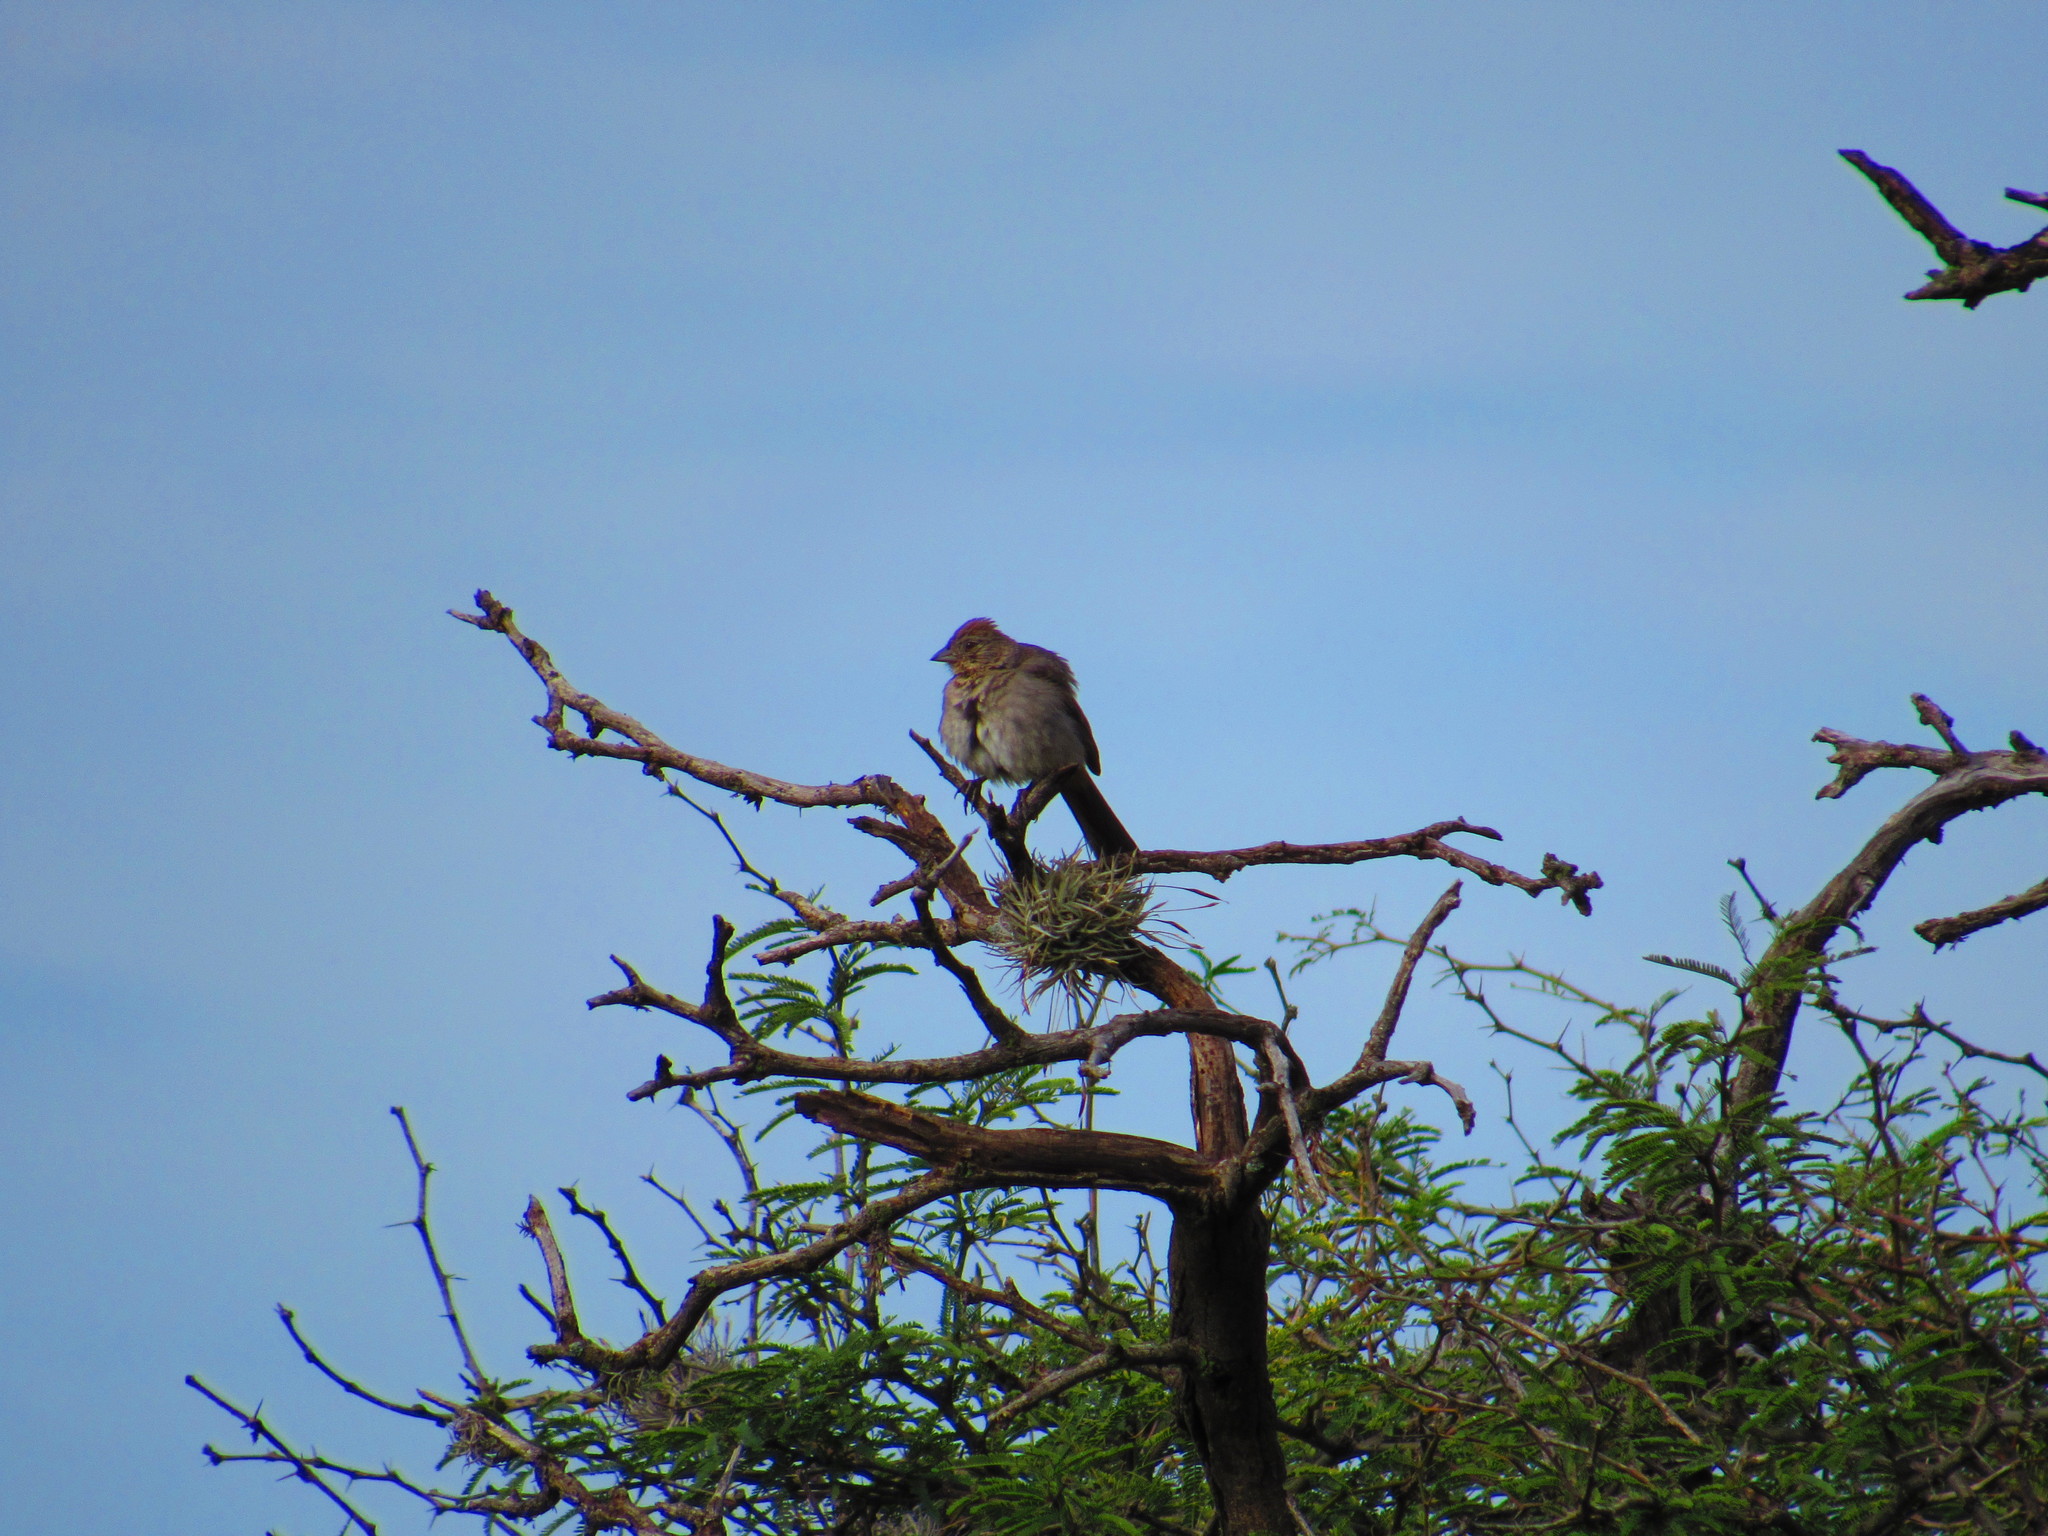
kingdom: Animalia
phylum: Chordata
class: Aves
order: Passeriformes
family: Passerellidae
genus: Melozone
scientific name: Melozone fusca
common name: Canyon towhee
